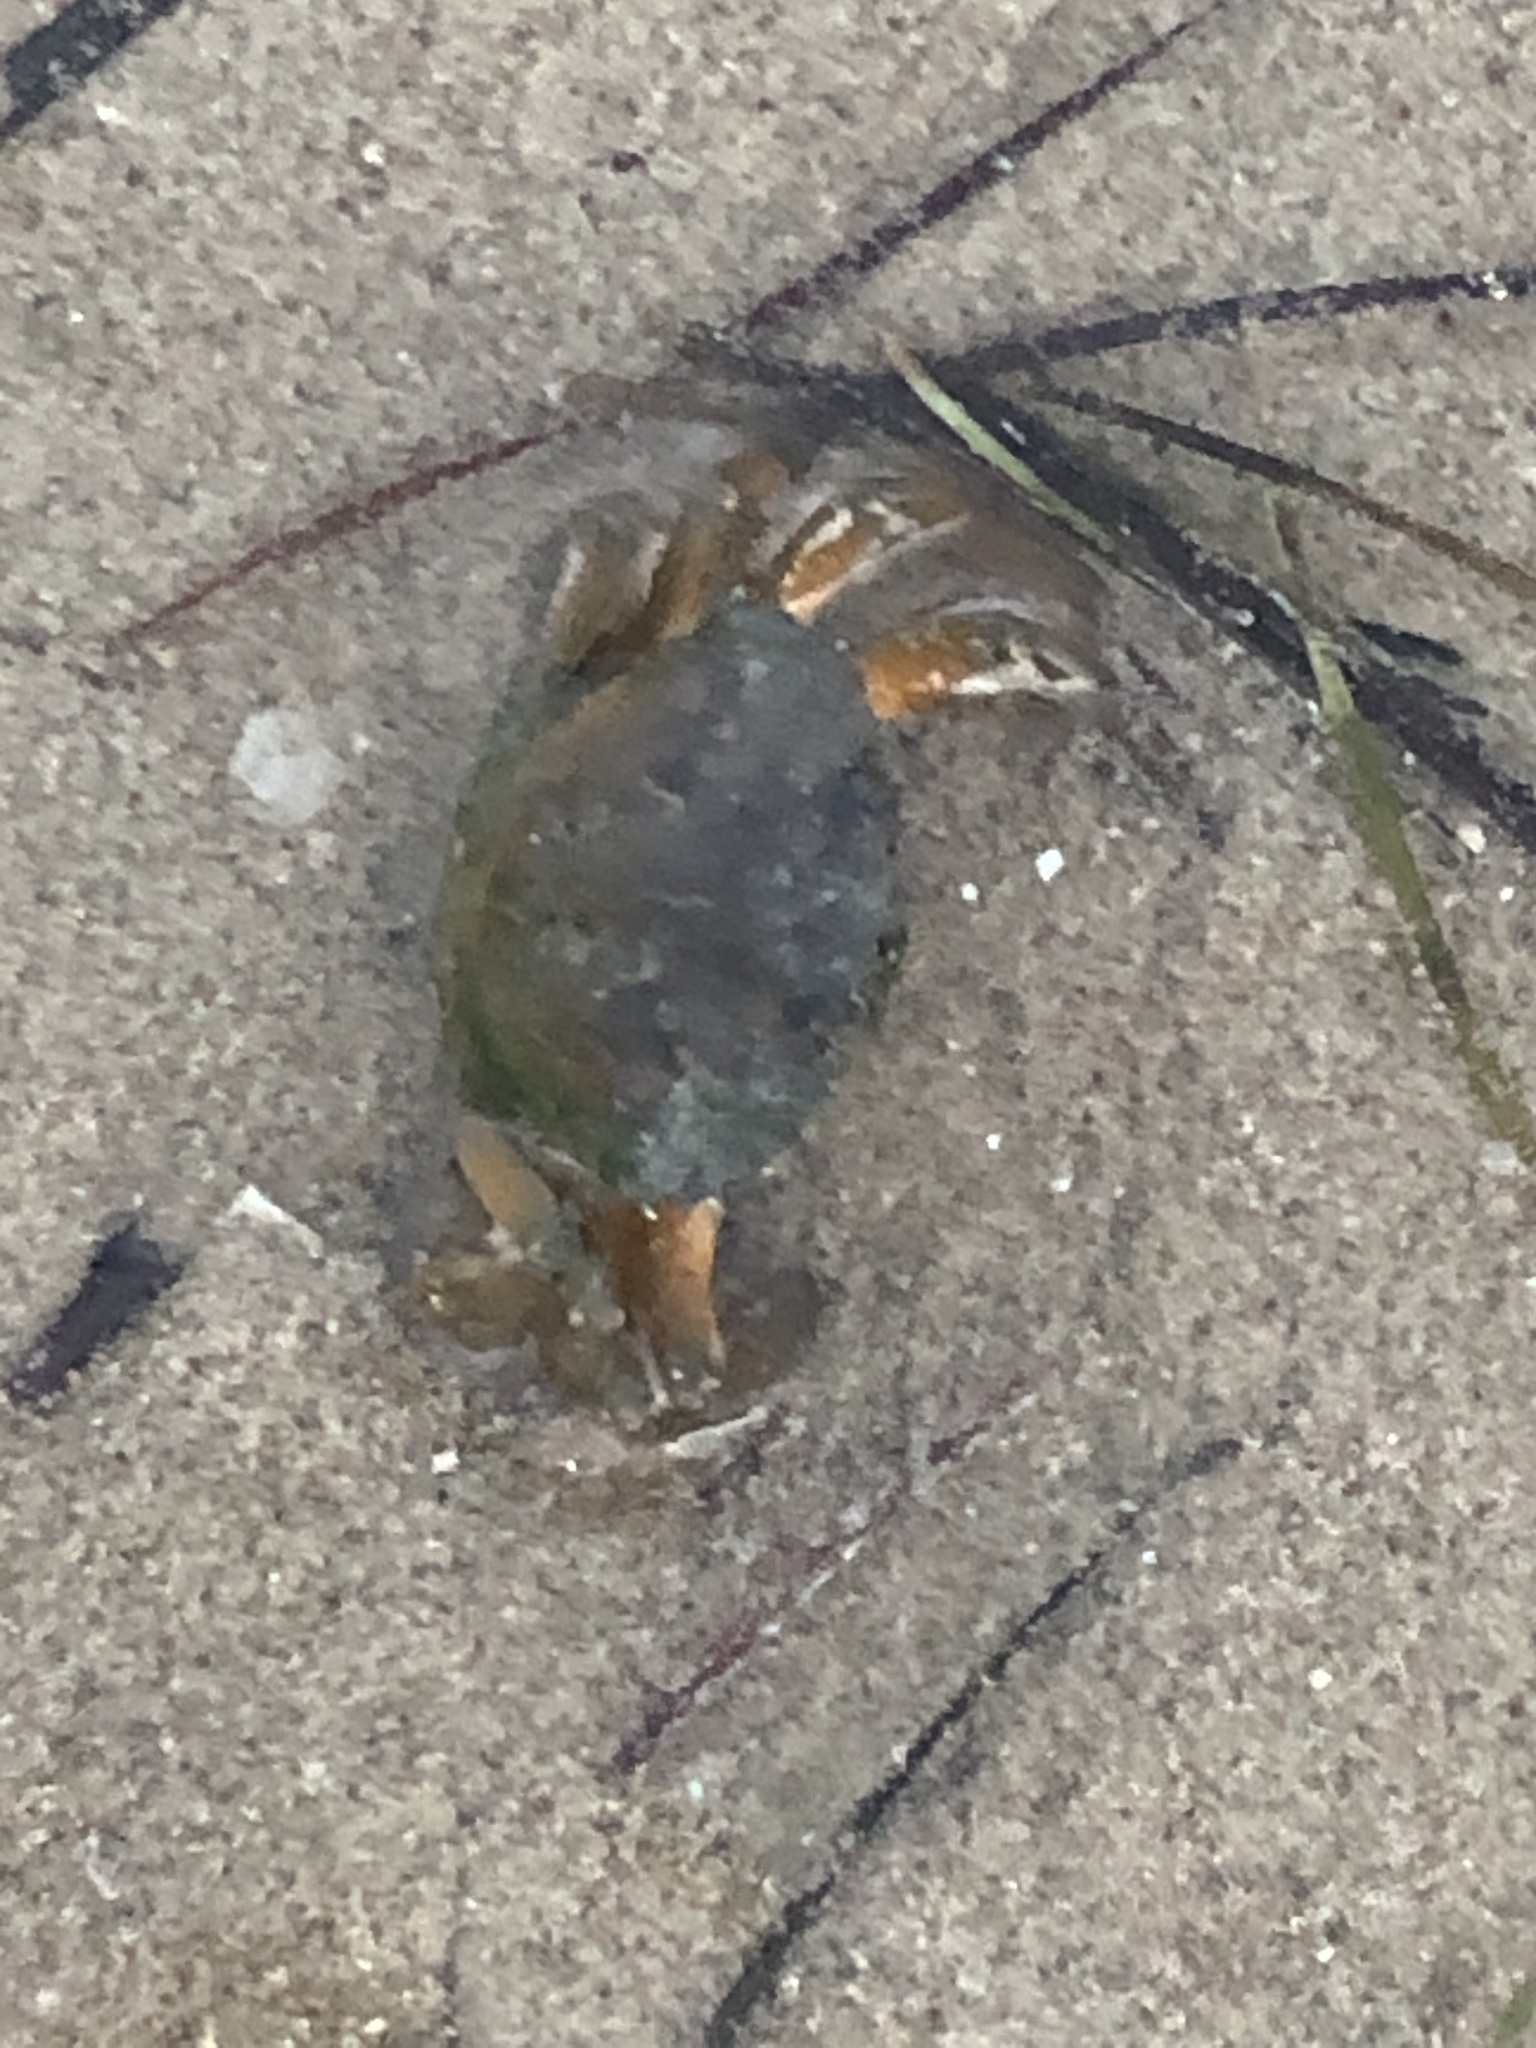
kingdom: Animalia
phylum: Arthropoda
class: Malacostraca
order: Decapoda
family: Carcinidae
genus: Carcinus
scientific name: Carcinus aestuarii
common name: Mediterranean green crab
